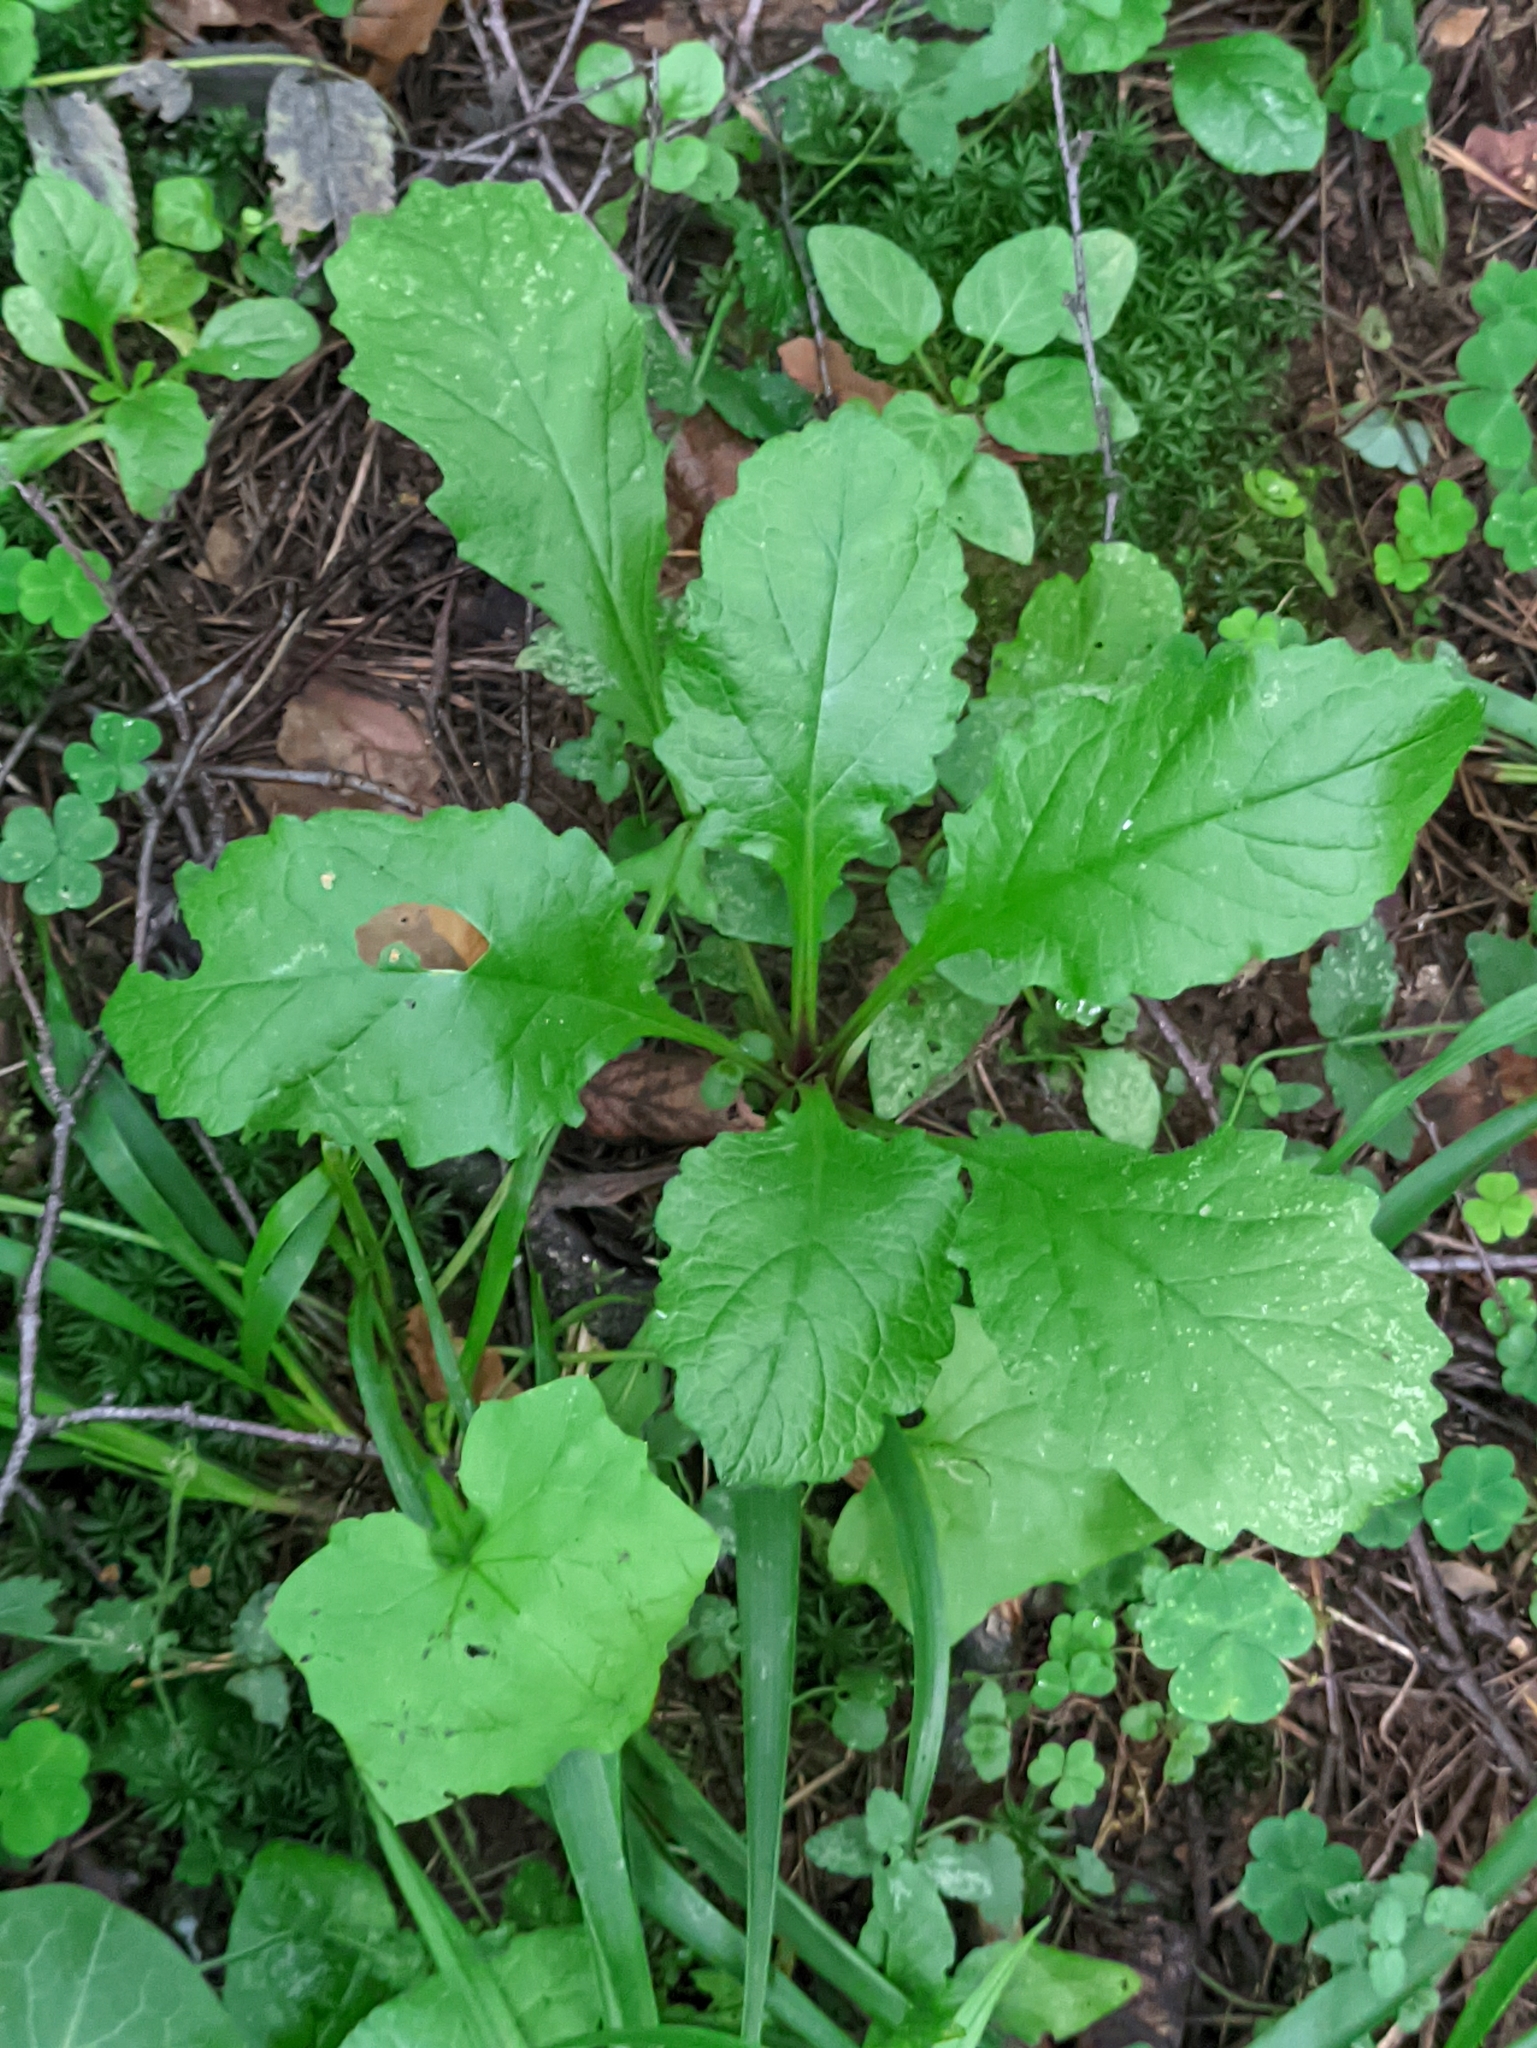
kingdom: Plantae
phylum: Tracheophyta
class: Magnoliopsida
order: Lamiales
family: Lamiaceae
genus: Ajuga
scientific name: Ajuga reptans
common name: Bugle
